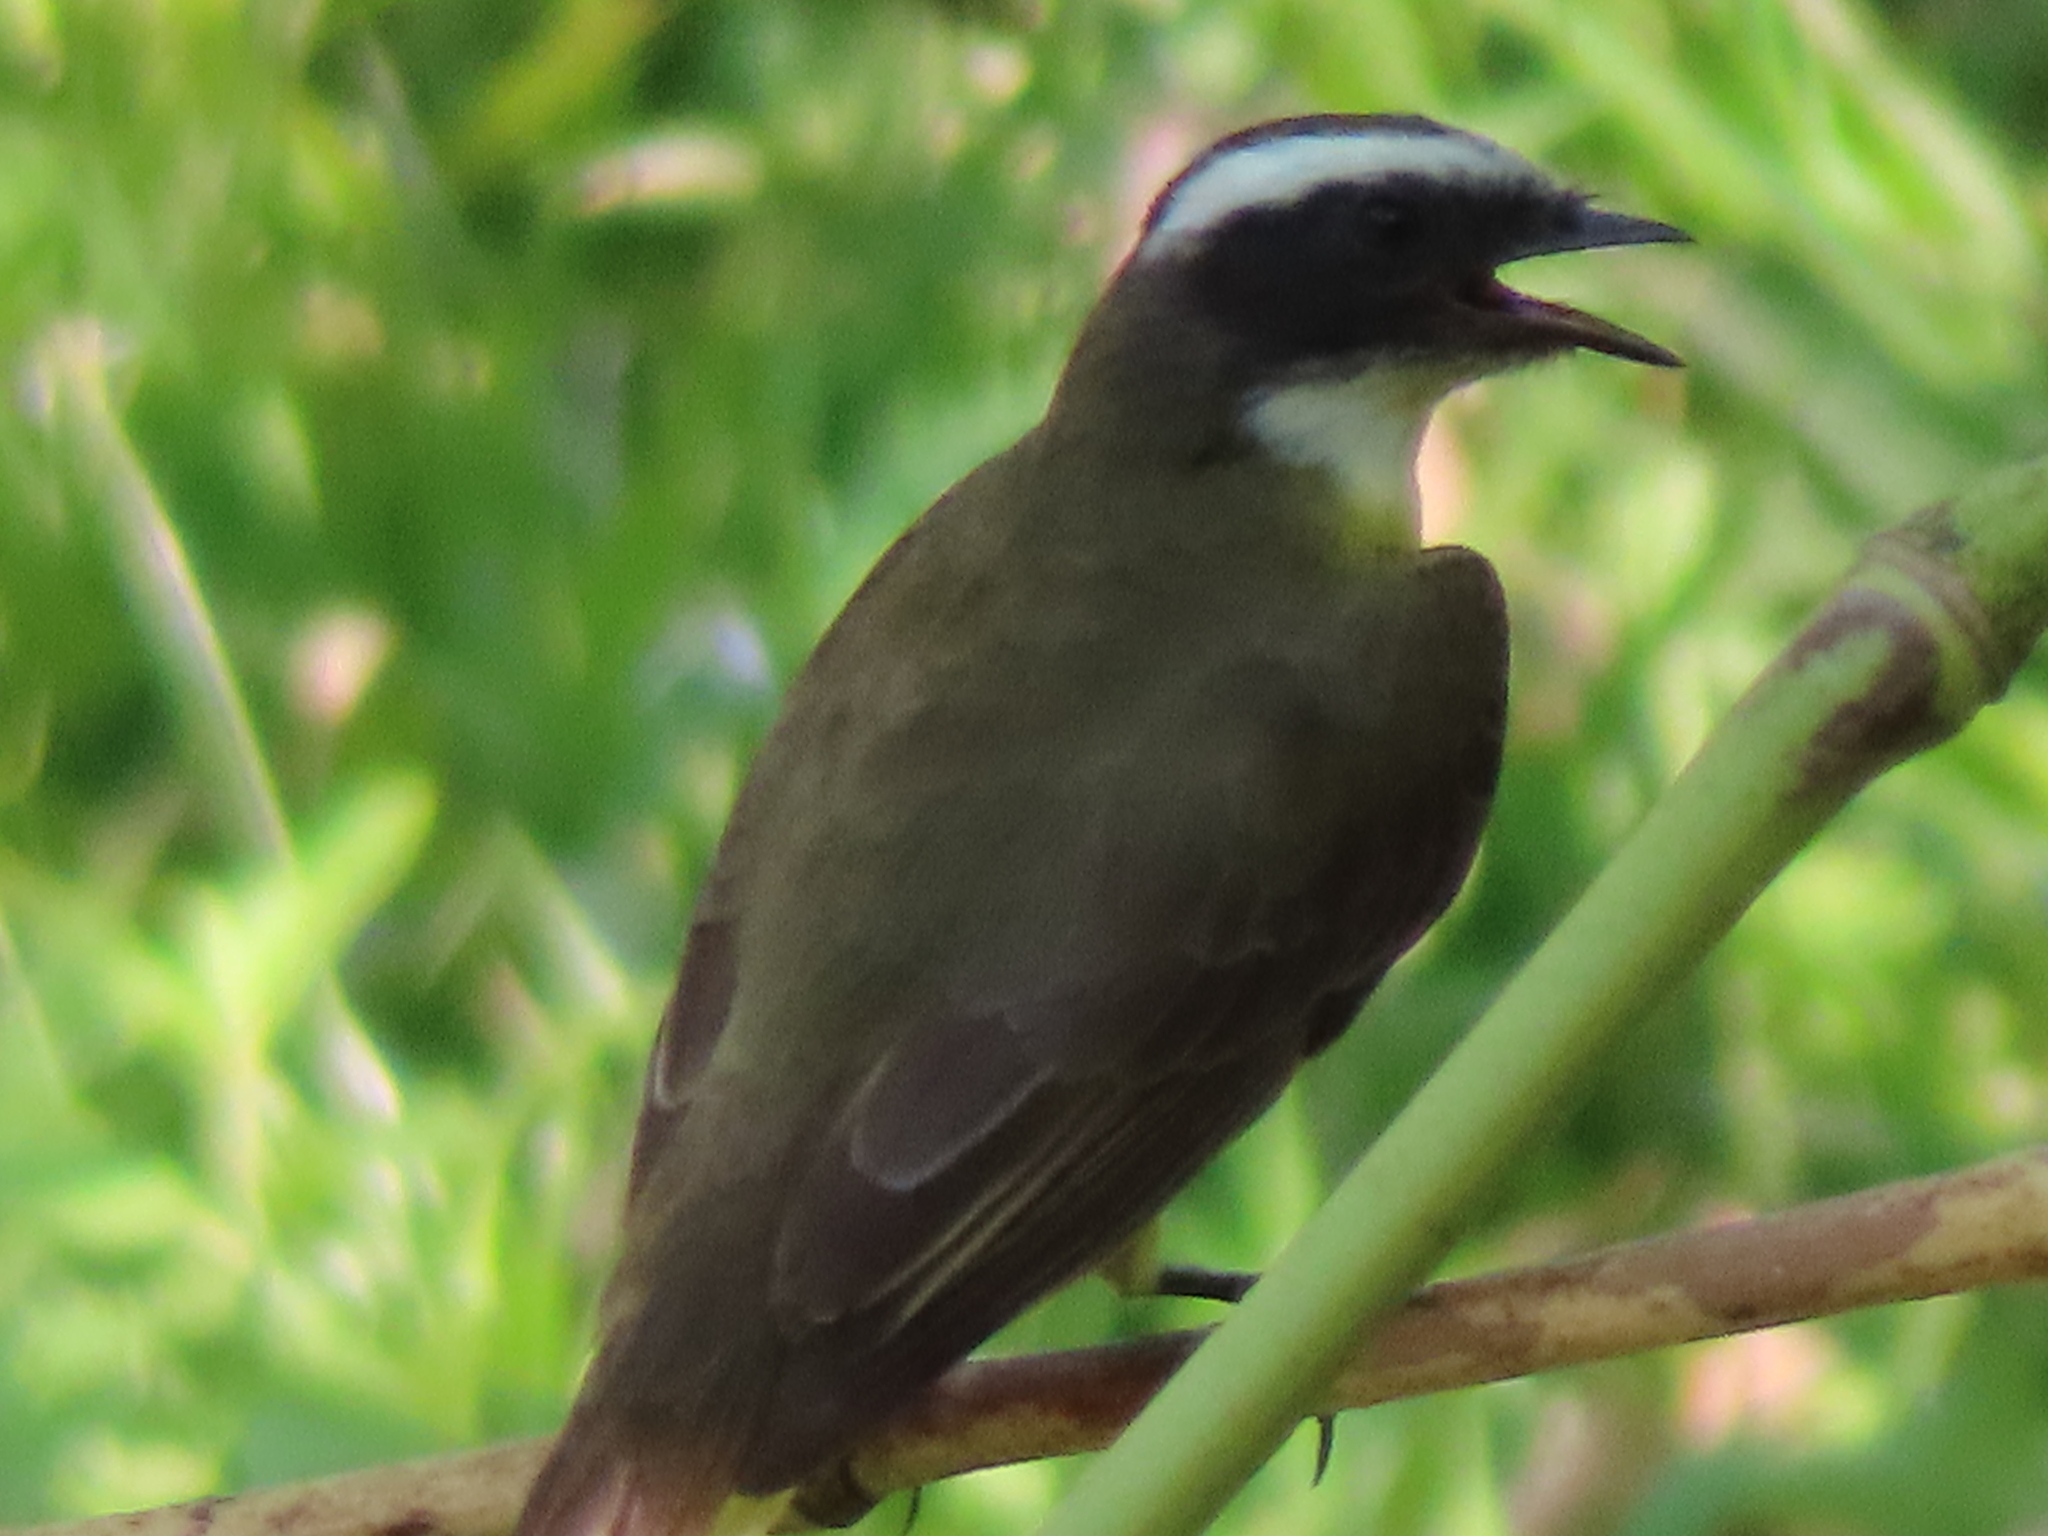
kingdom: Animalia
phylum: Chordata
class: Aves
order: Passeriformes
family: Tyrannidae
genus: Myiozetetes
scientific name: Myiozetetes similis
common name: Social flycatcher
